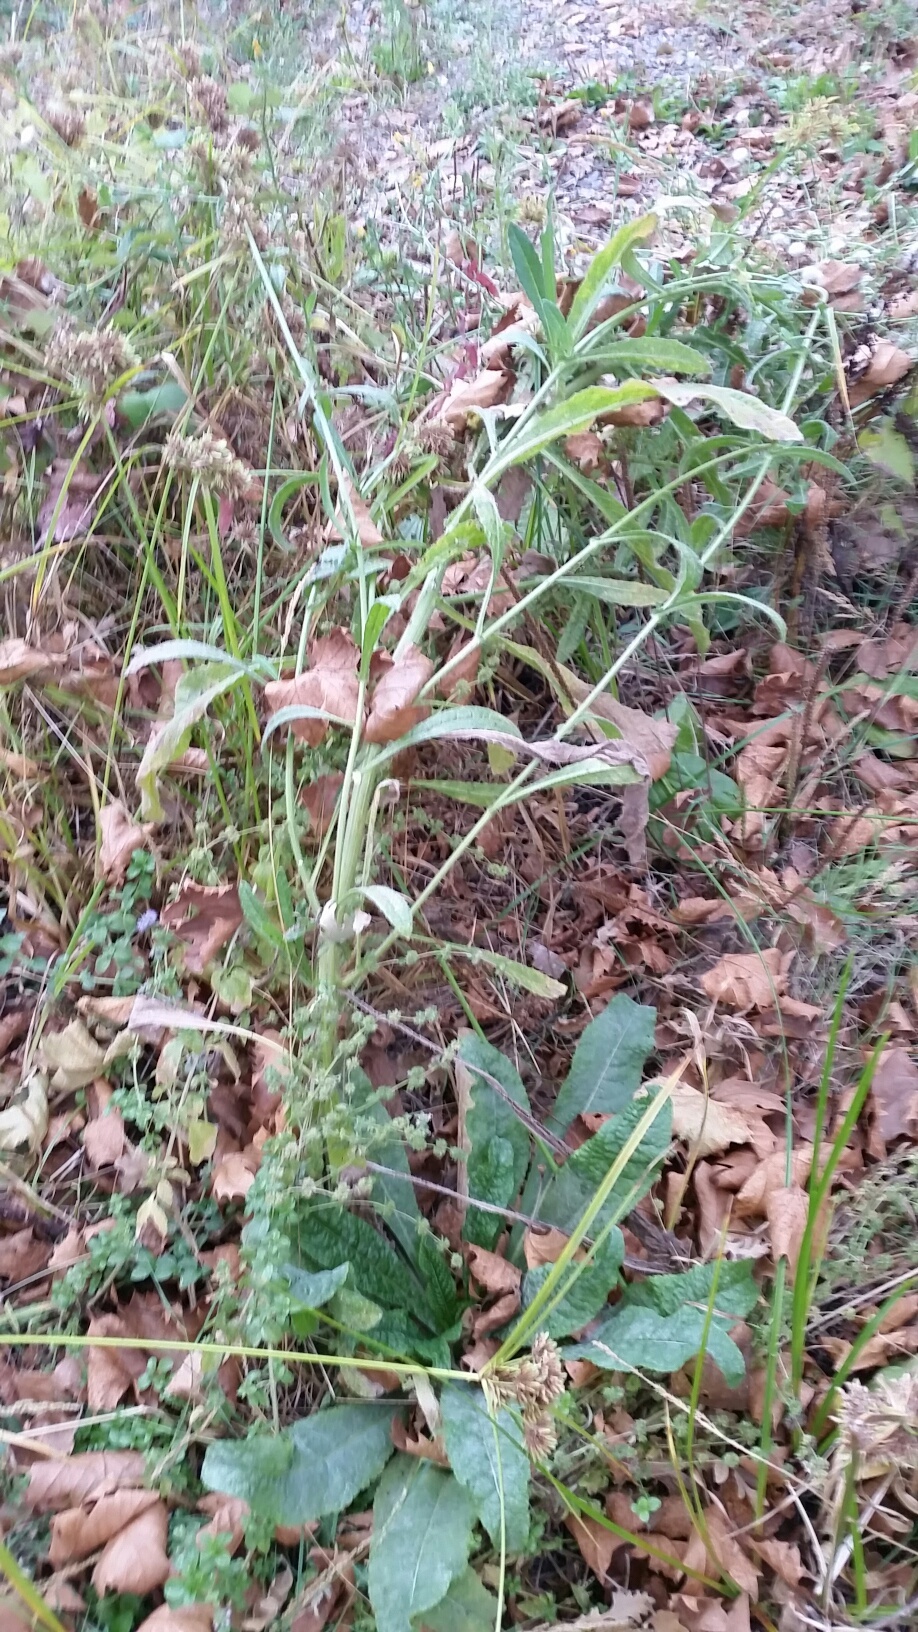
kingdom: Plantae
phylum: Tracheophyta
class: Magnoliopsida
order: Asterales
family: Asteraceae
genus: Helminthotheca
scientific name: Helminthotheca echioides
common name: Ox-tongue
